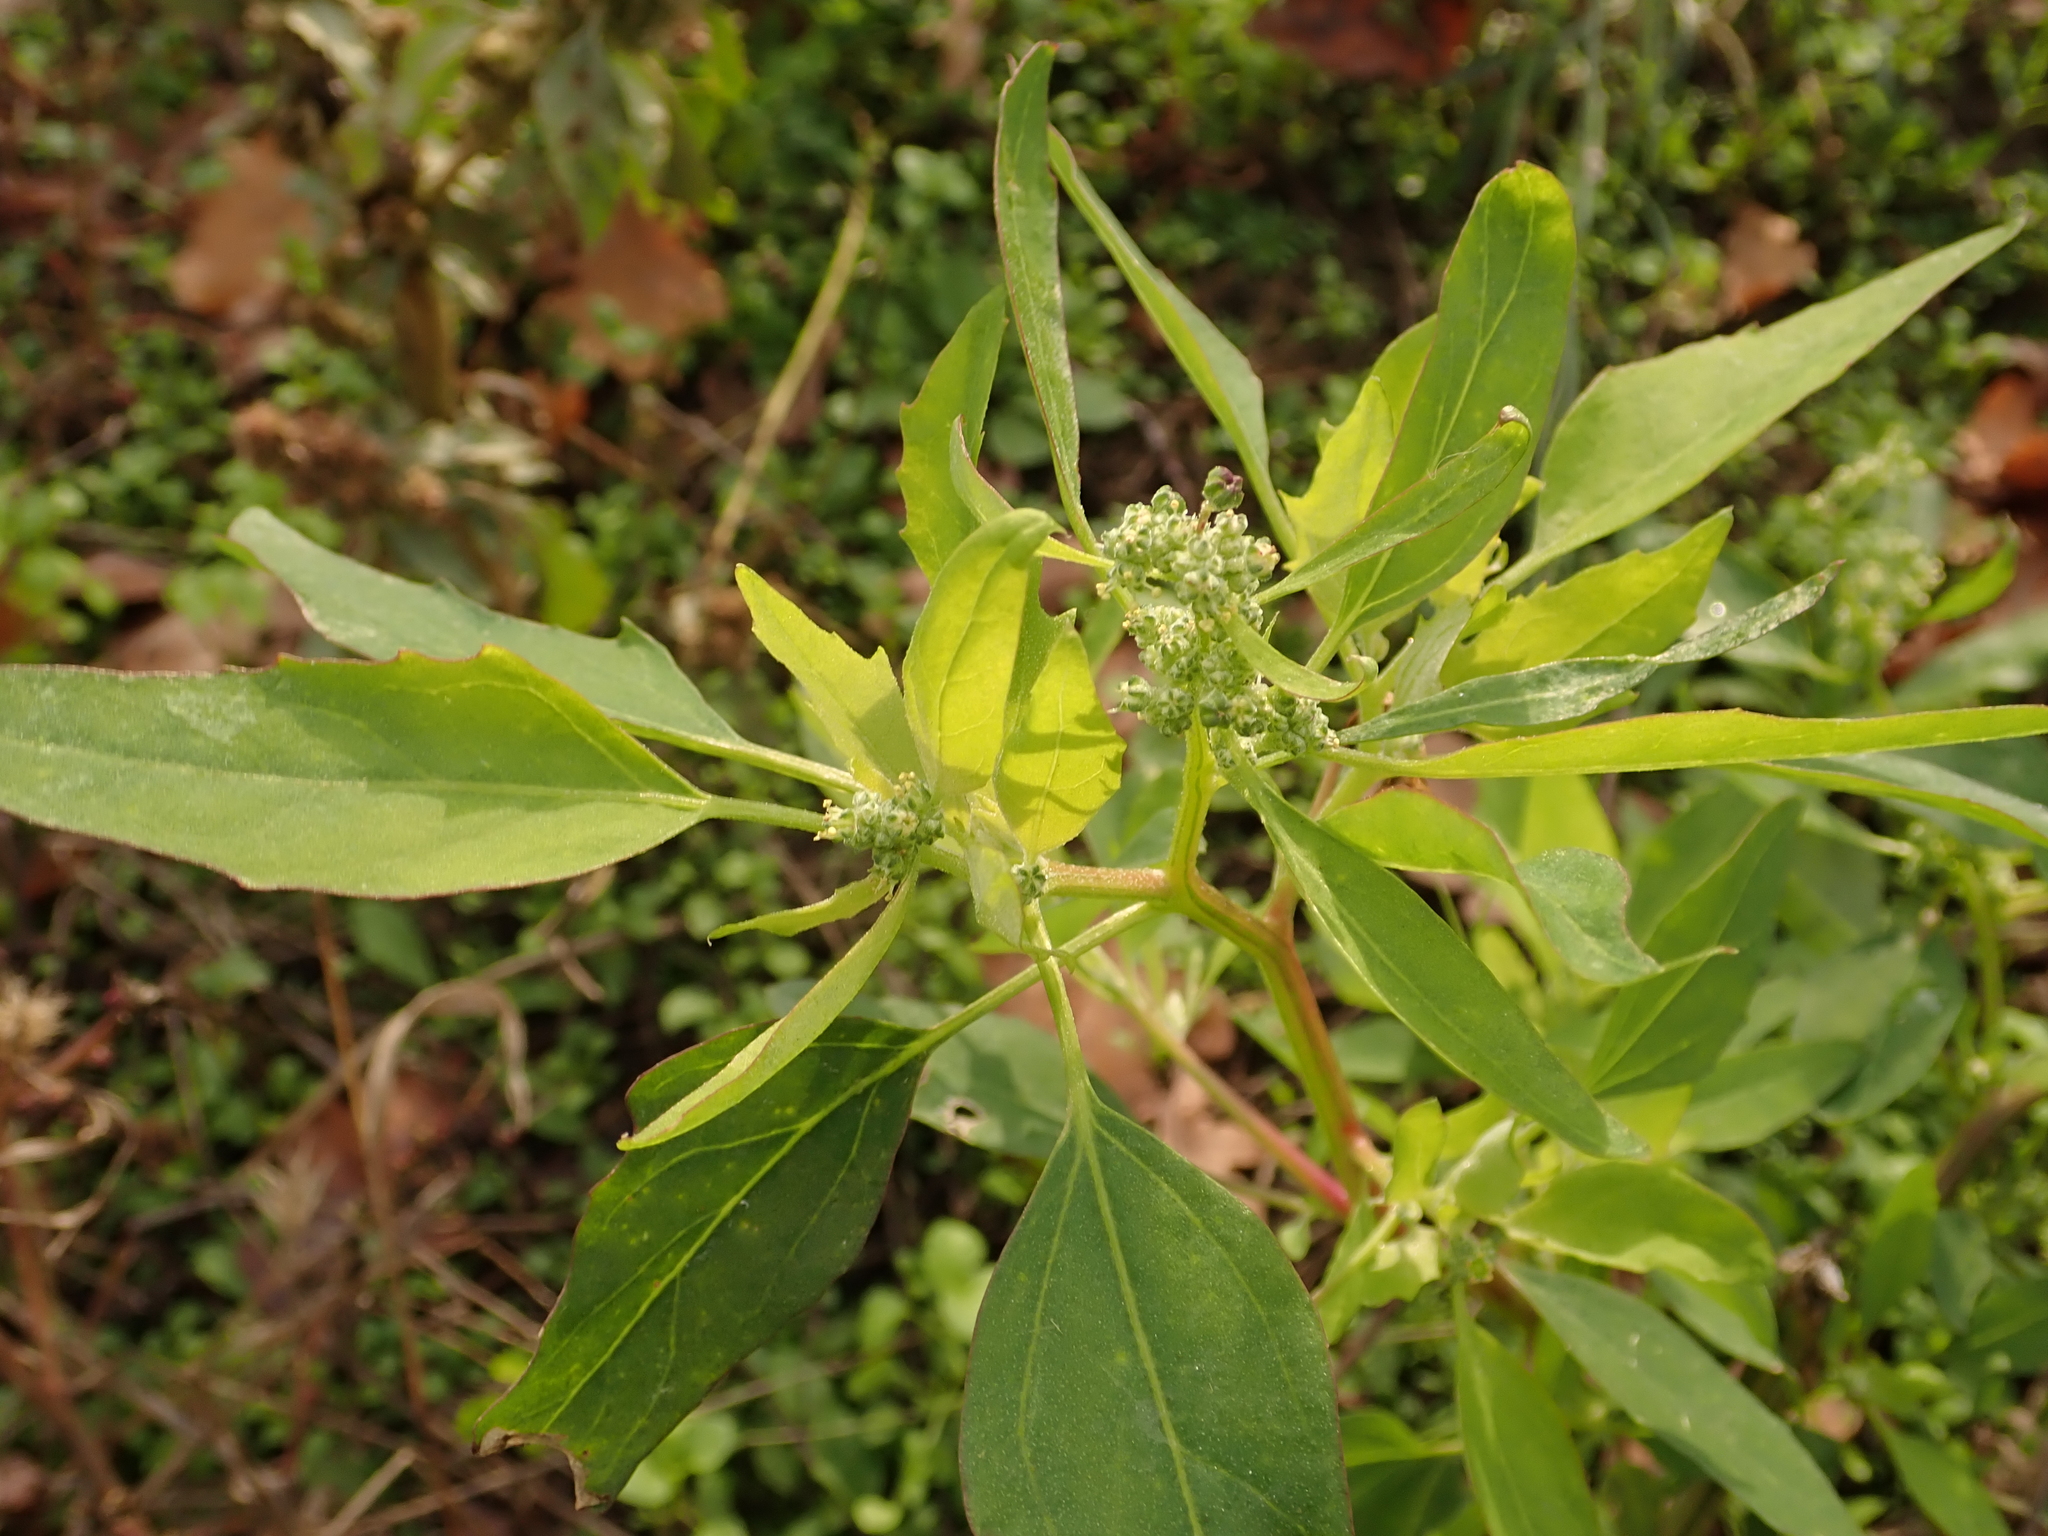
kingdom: Plantae
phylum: Tracheophyta
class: Magnoliopsida
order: Caryophyllales
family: Amaranthaceae
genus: Chenopodium
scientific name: Chenopodium album
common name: Fat-hen
